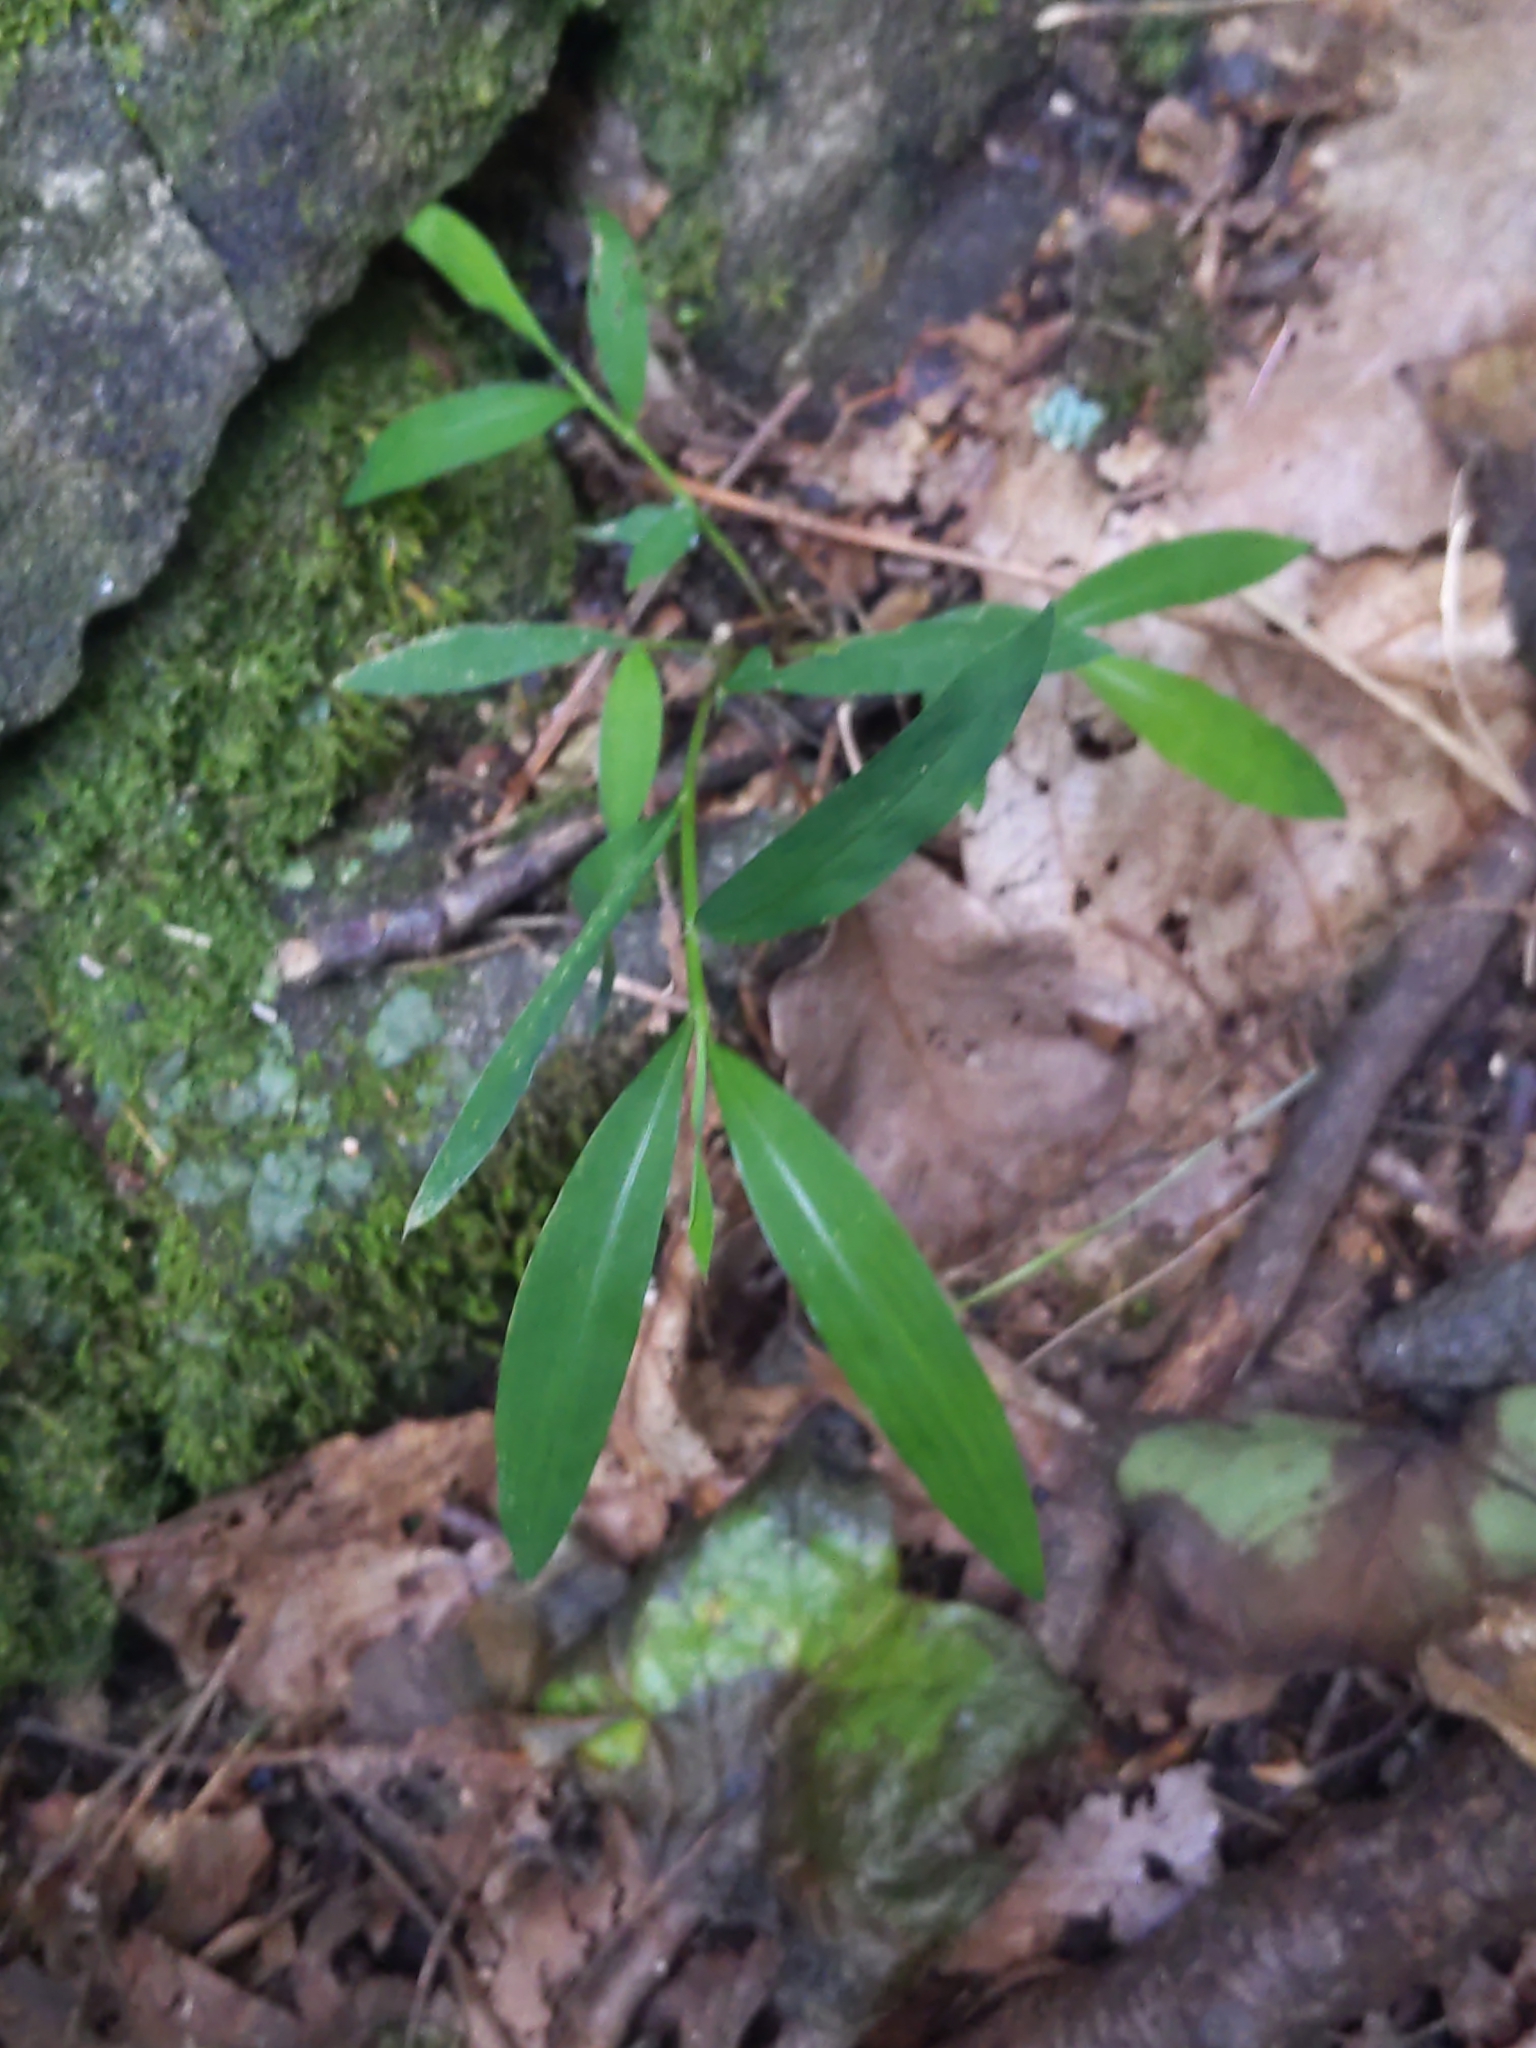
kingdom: Plantae
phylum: Tracheophyta
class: Liliopsida
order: Poales
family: Poaceae
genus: Microstegium
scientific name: Microstegium vimineum
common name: Japanese stiltgrass
